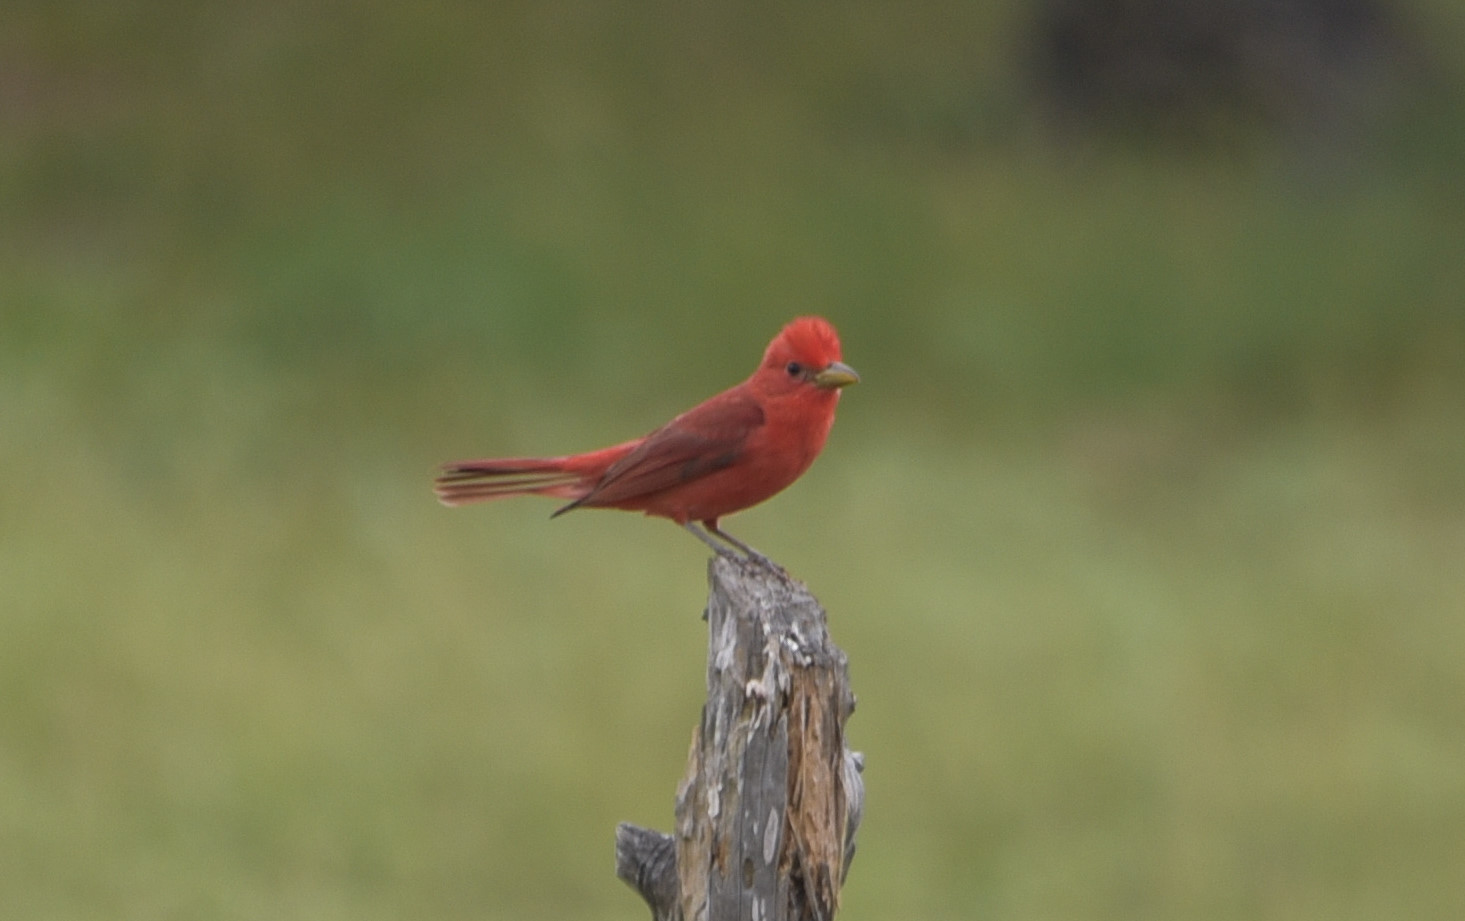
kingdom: Animalia
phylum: Chordata
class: Aves
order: Passeriformes
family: Cardinalidae
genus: Piranga
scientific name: Piranga rubra
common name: Summer tanager
